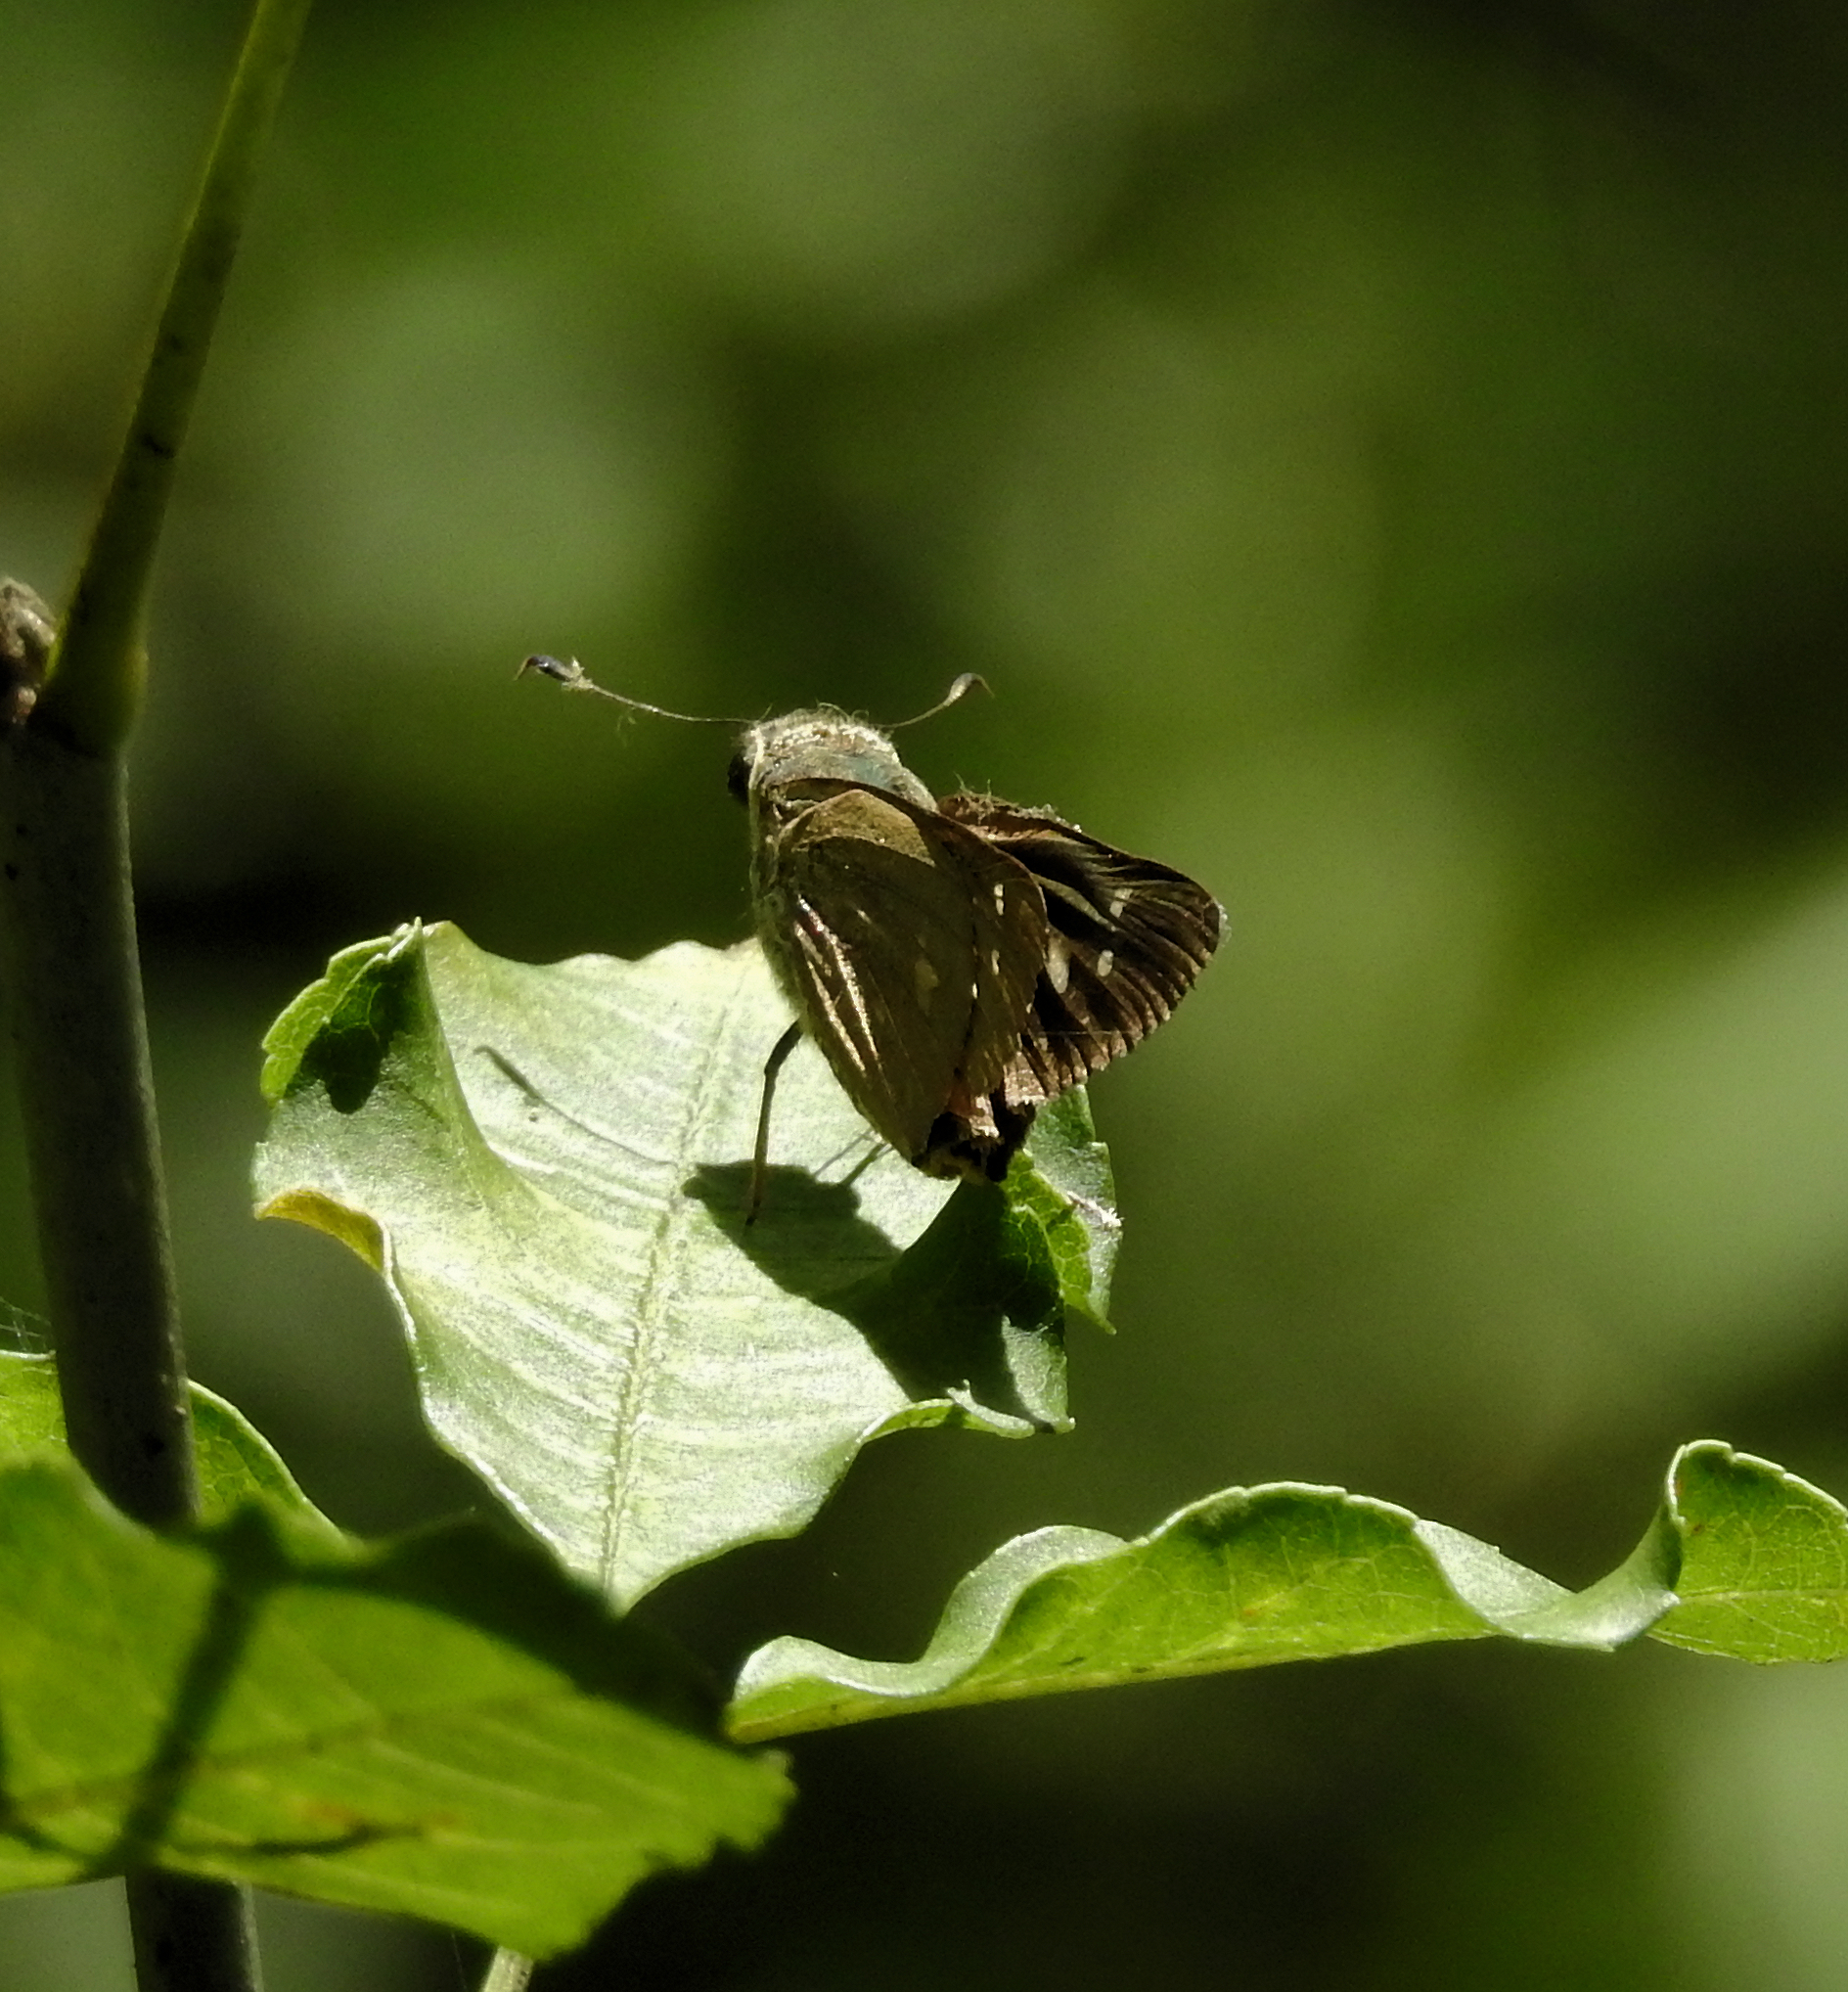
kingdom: Animalia
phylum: Arthropoda
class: Insecta
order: Lepidoptera
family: Hesperiidae
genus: Calpodes
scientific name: Calpodes ethlius
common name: Brazilian skipper
